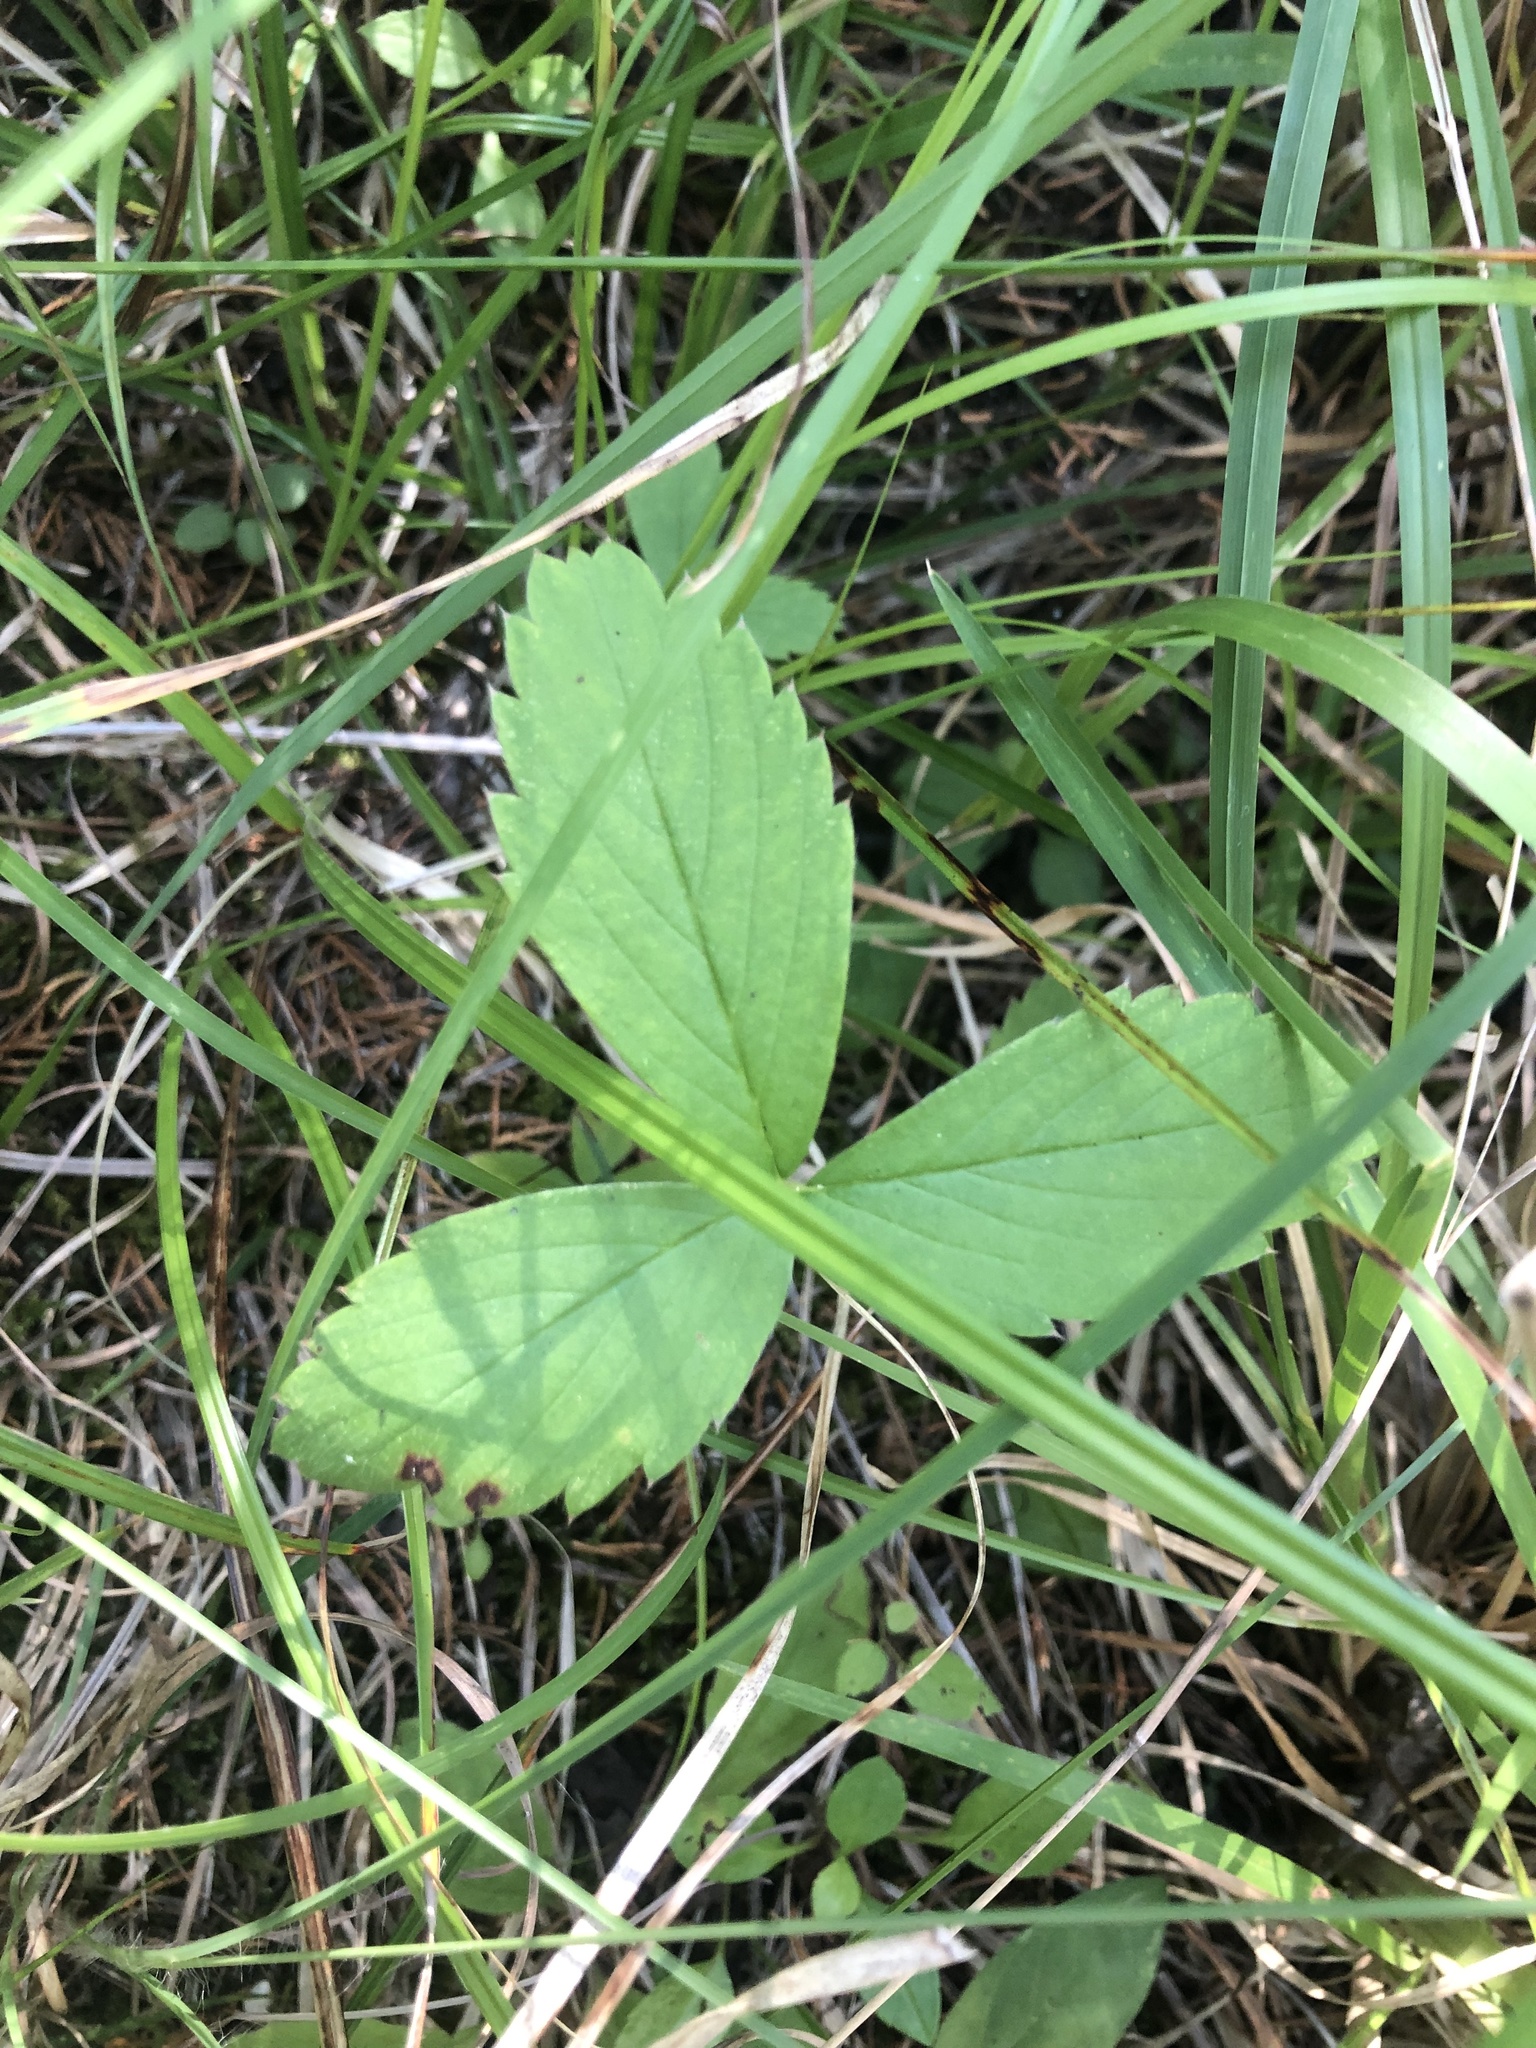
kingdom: Plantae
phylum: Tracheophyta
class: Magnoliopsida
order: Rosales
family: Rosaceae
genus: Fragaria
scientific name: Fragaria virginiana
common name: Thickleaved wild strawberry
